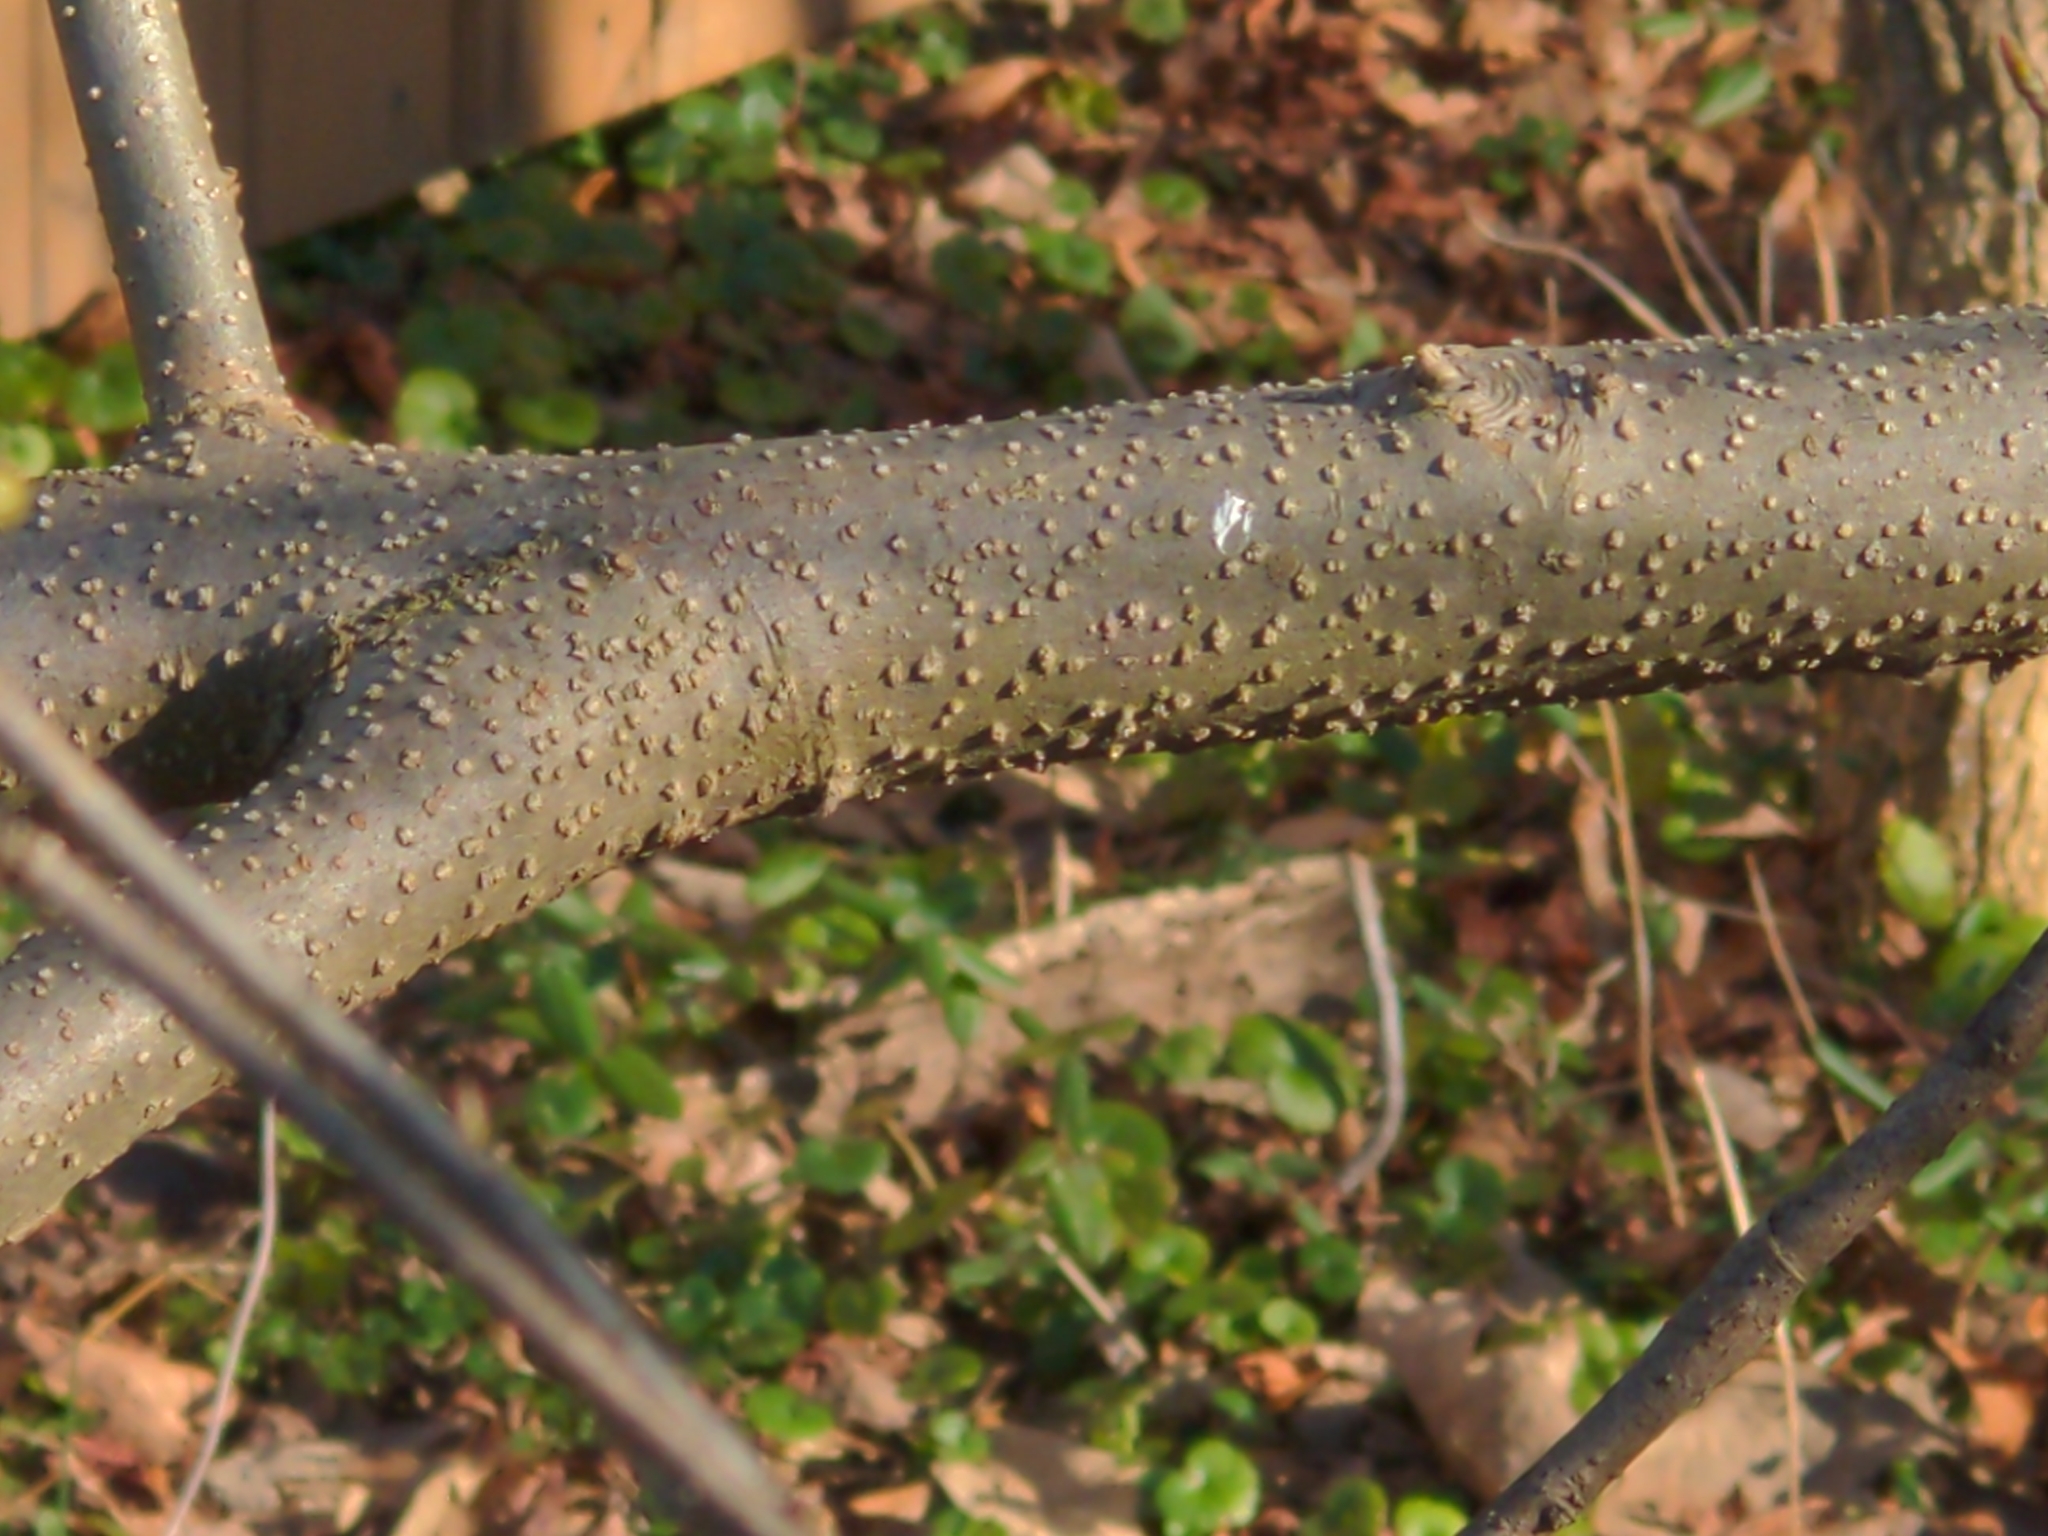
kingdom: Plantae
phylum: Tracheophyta
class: Magnoliopsida
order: Laurales
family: Lauraceae
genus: Lindera
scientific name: Lindera benzoin
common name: Spicebush
